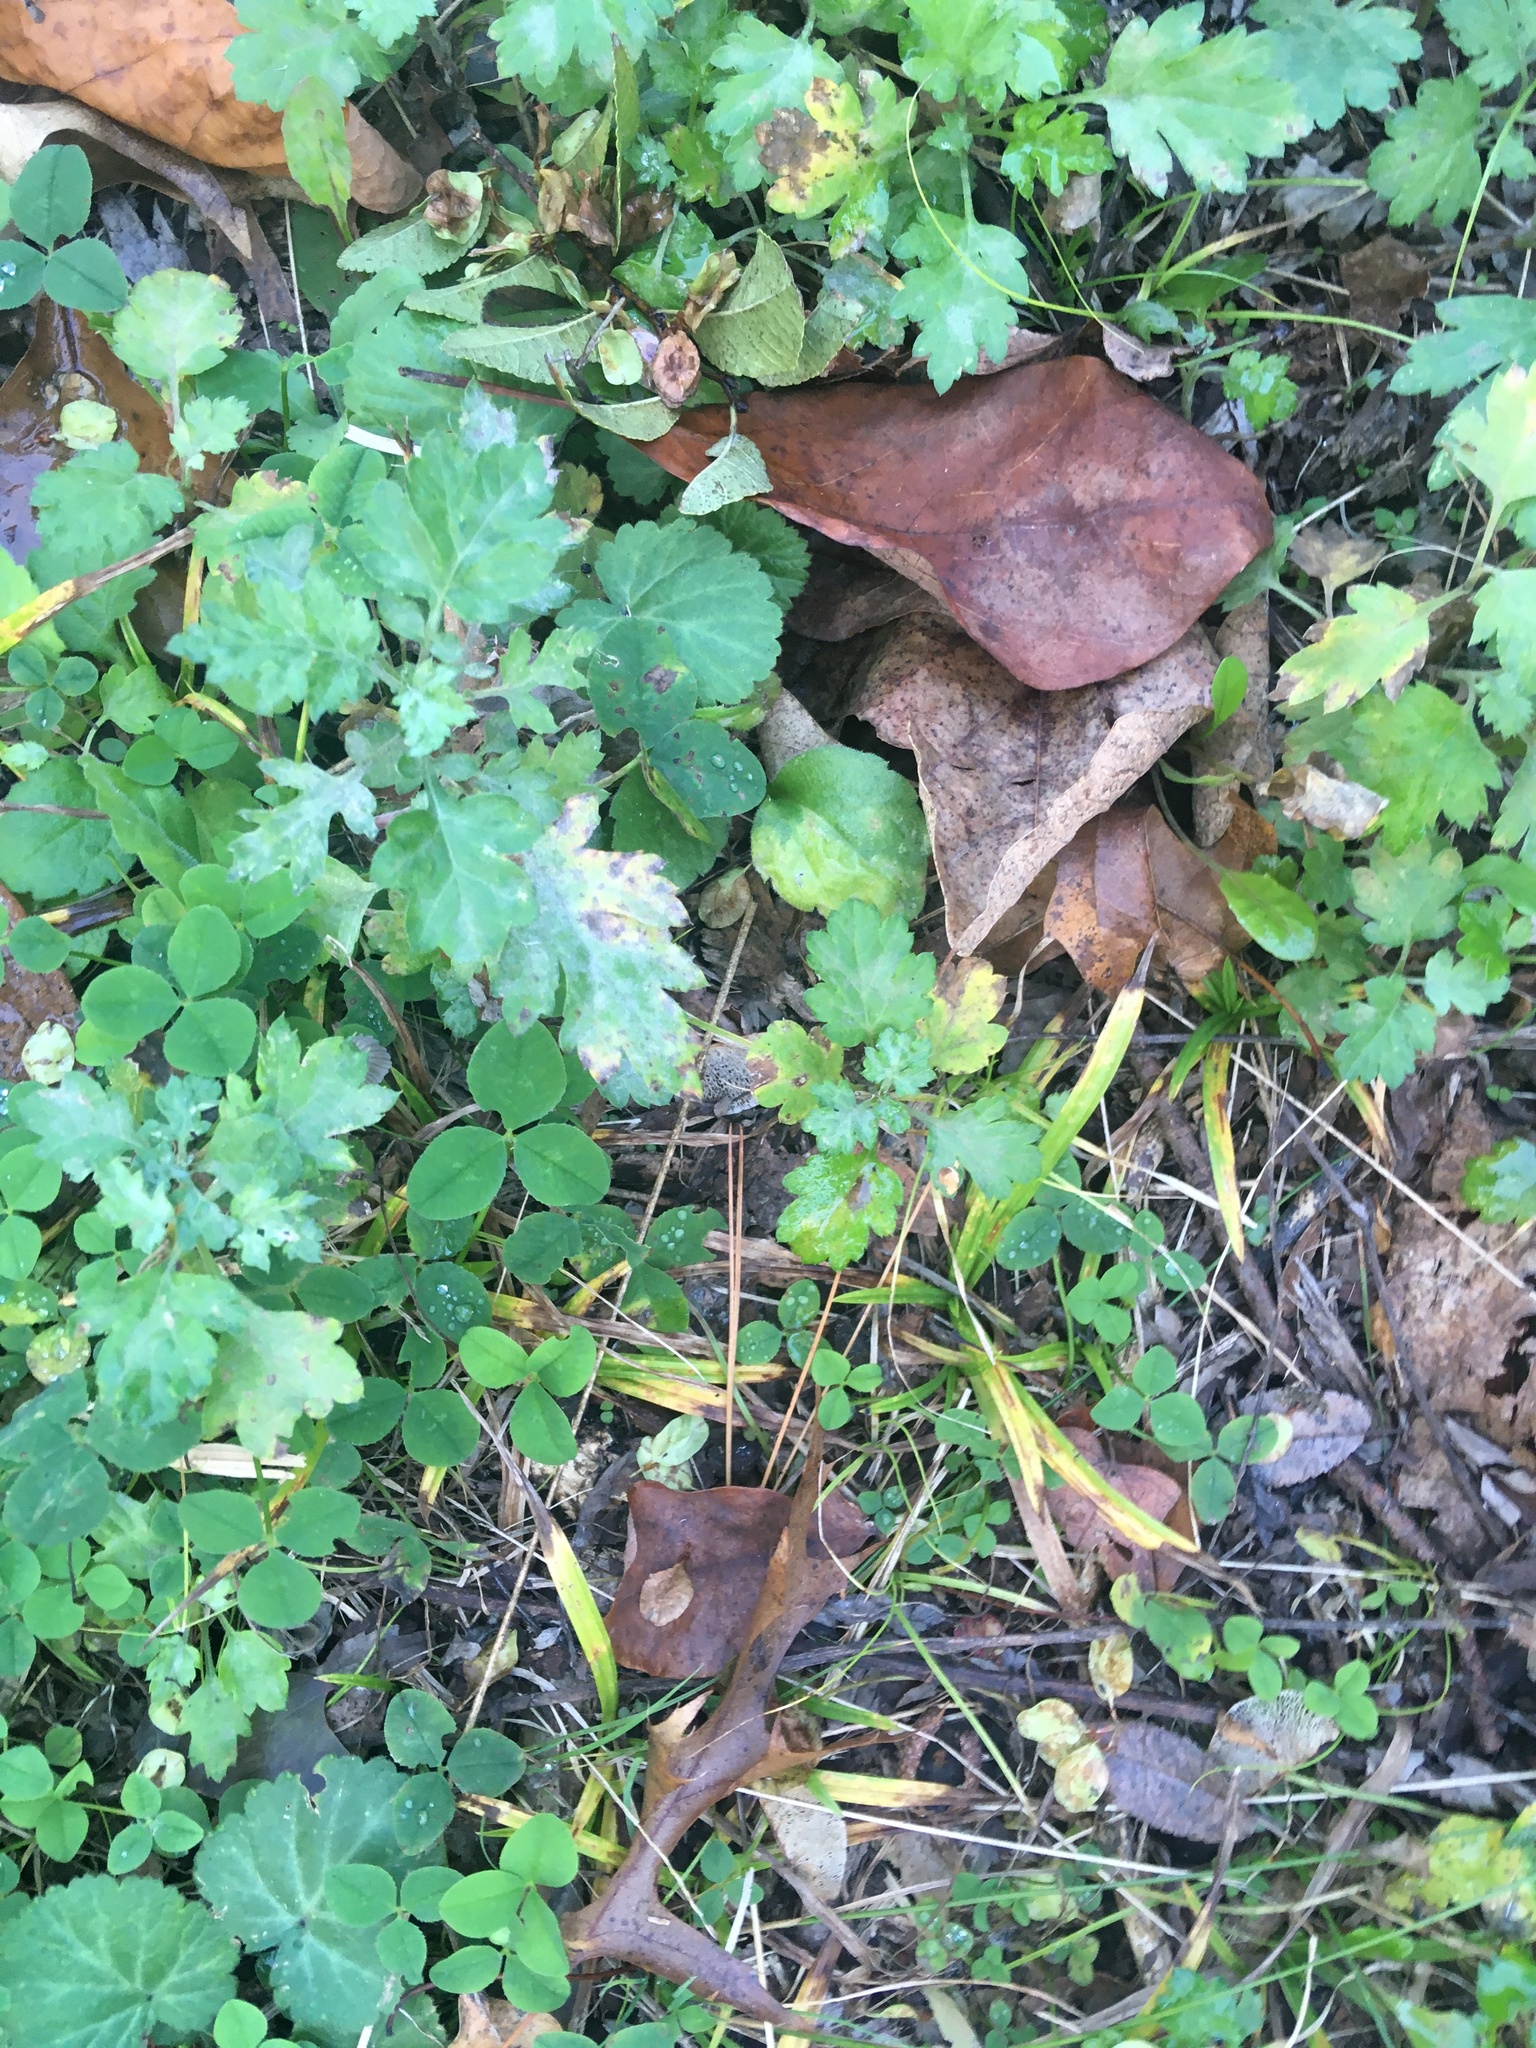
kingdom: Plantae
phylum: Tracheophyta
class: Magnoliopsida
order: Asterales
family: Asteraceae
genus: Artemisia
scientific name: Artemisia vulgaris
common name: Mugwort
